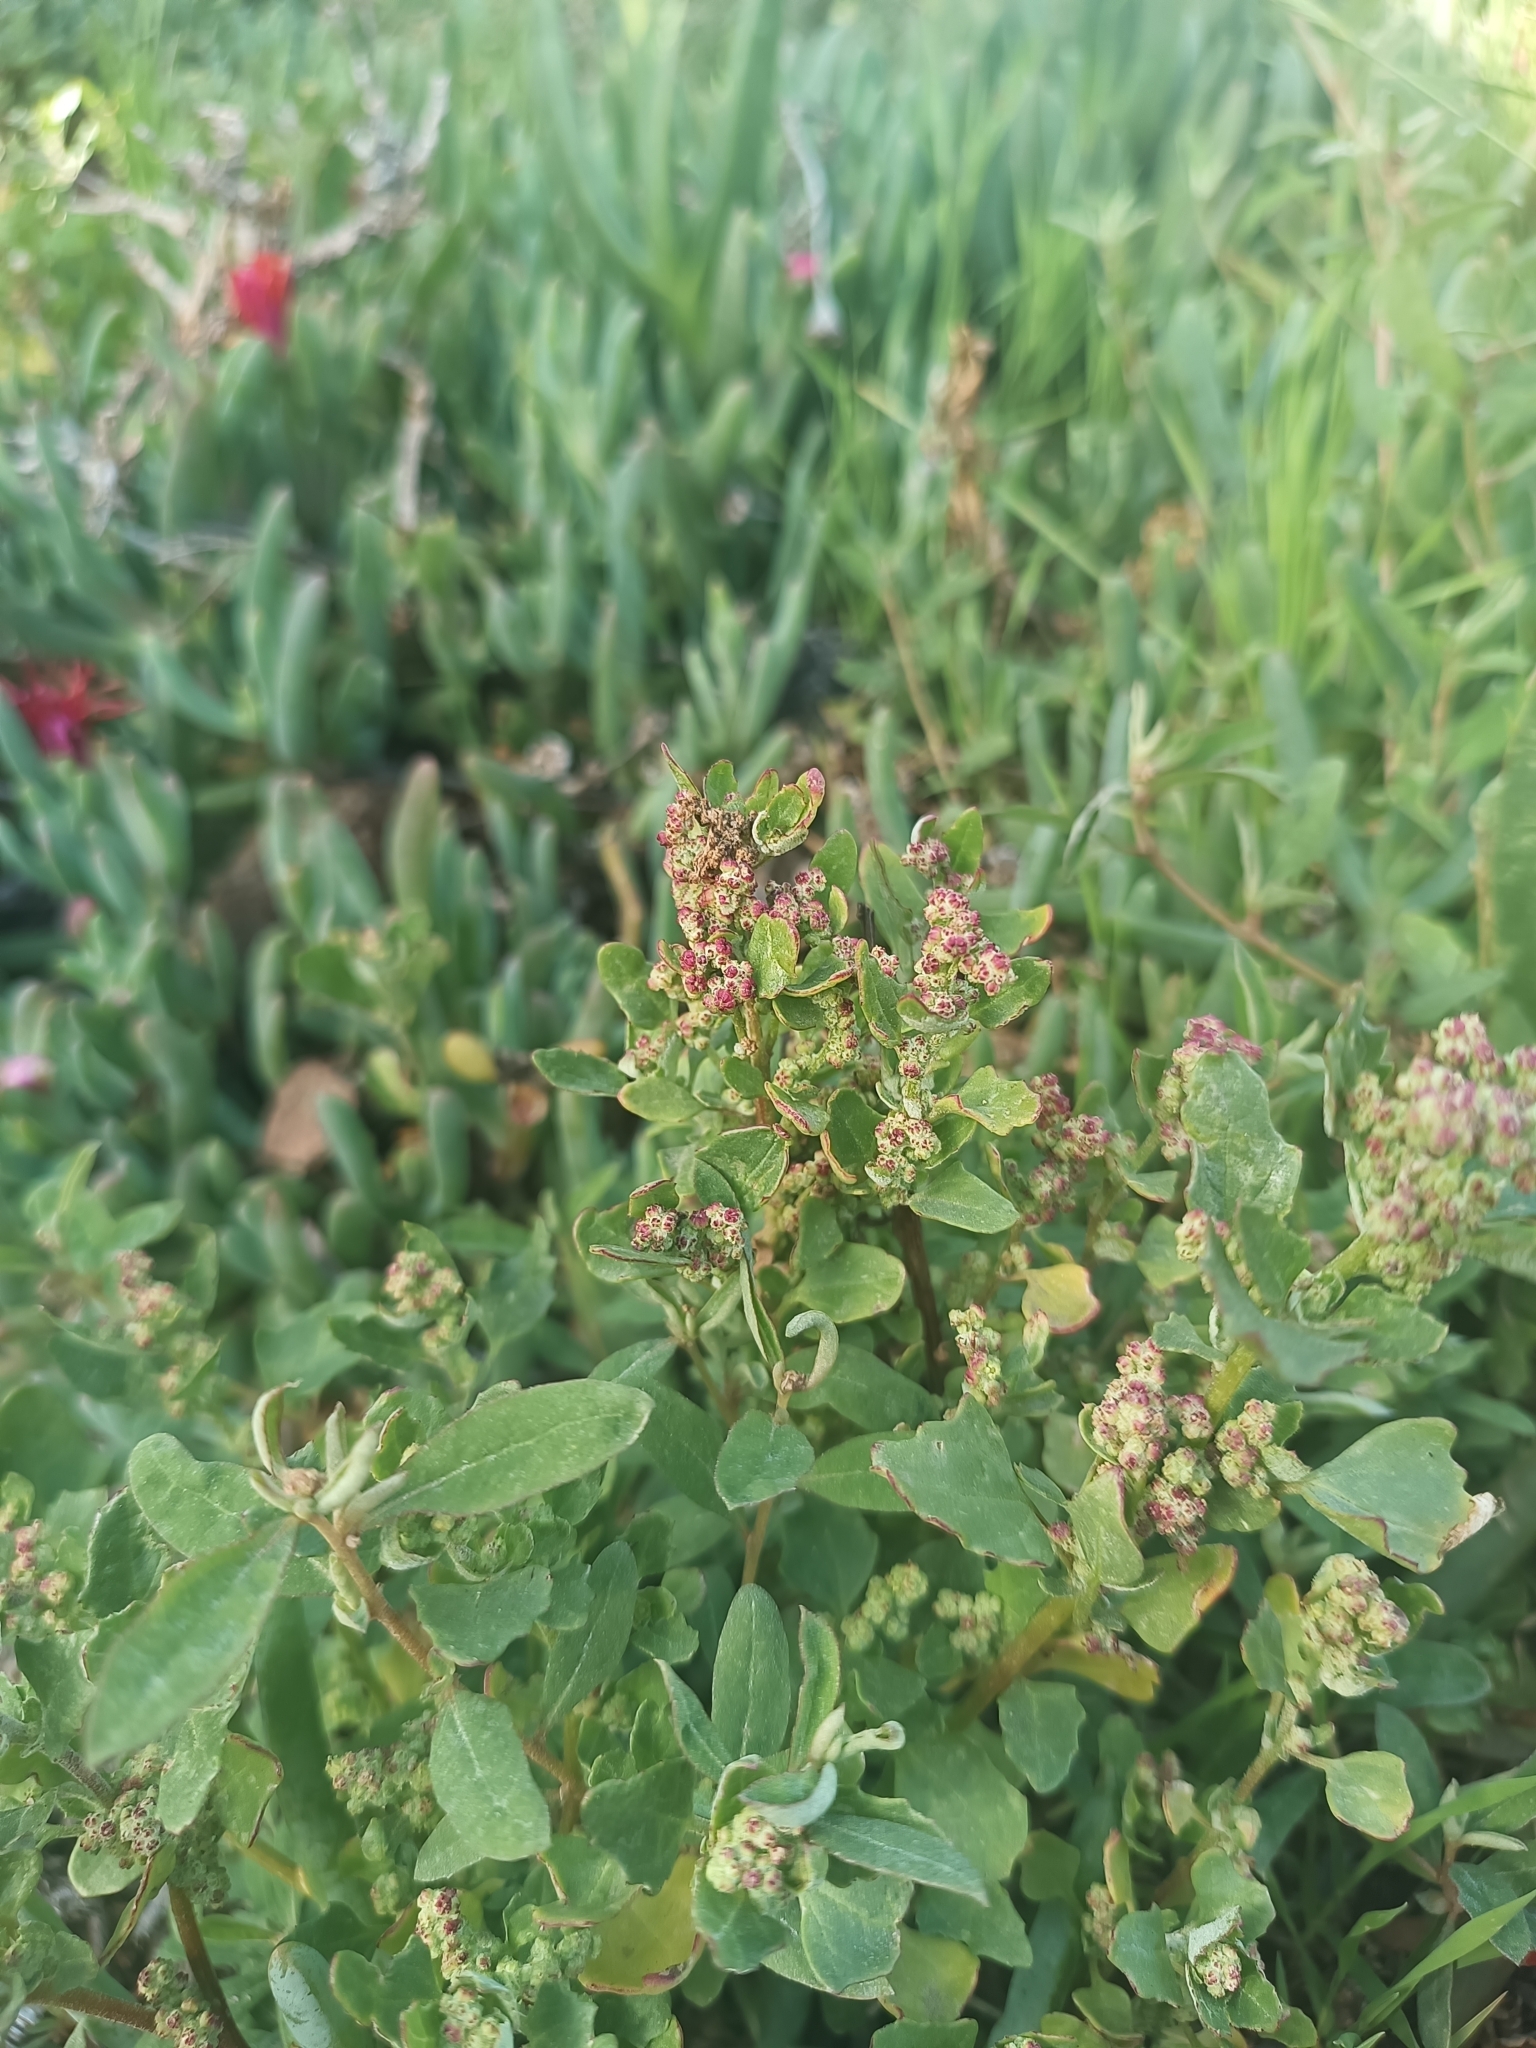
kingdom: Plantae
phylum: Tracheophyta
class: Magnoliopsida
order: Caryophyllales
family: Amaranthaceae
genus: Chenopodiastrum
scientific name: Chenopodiastrum murale
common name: Sowbane
